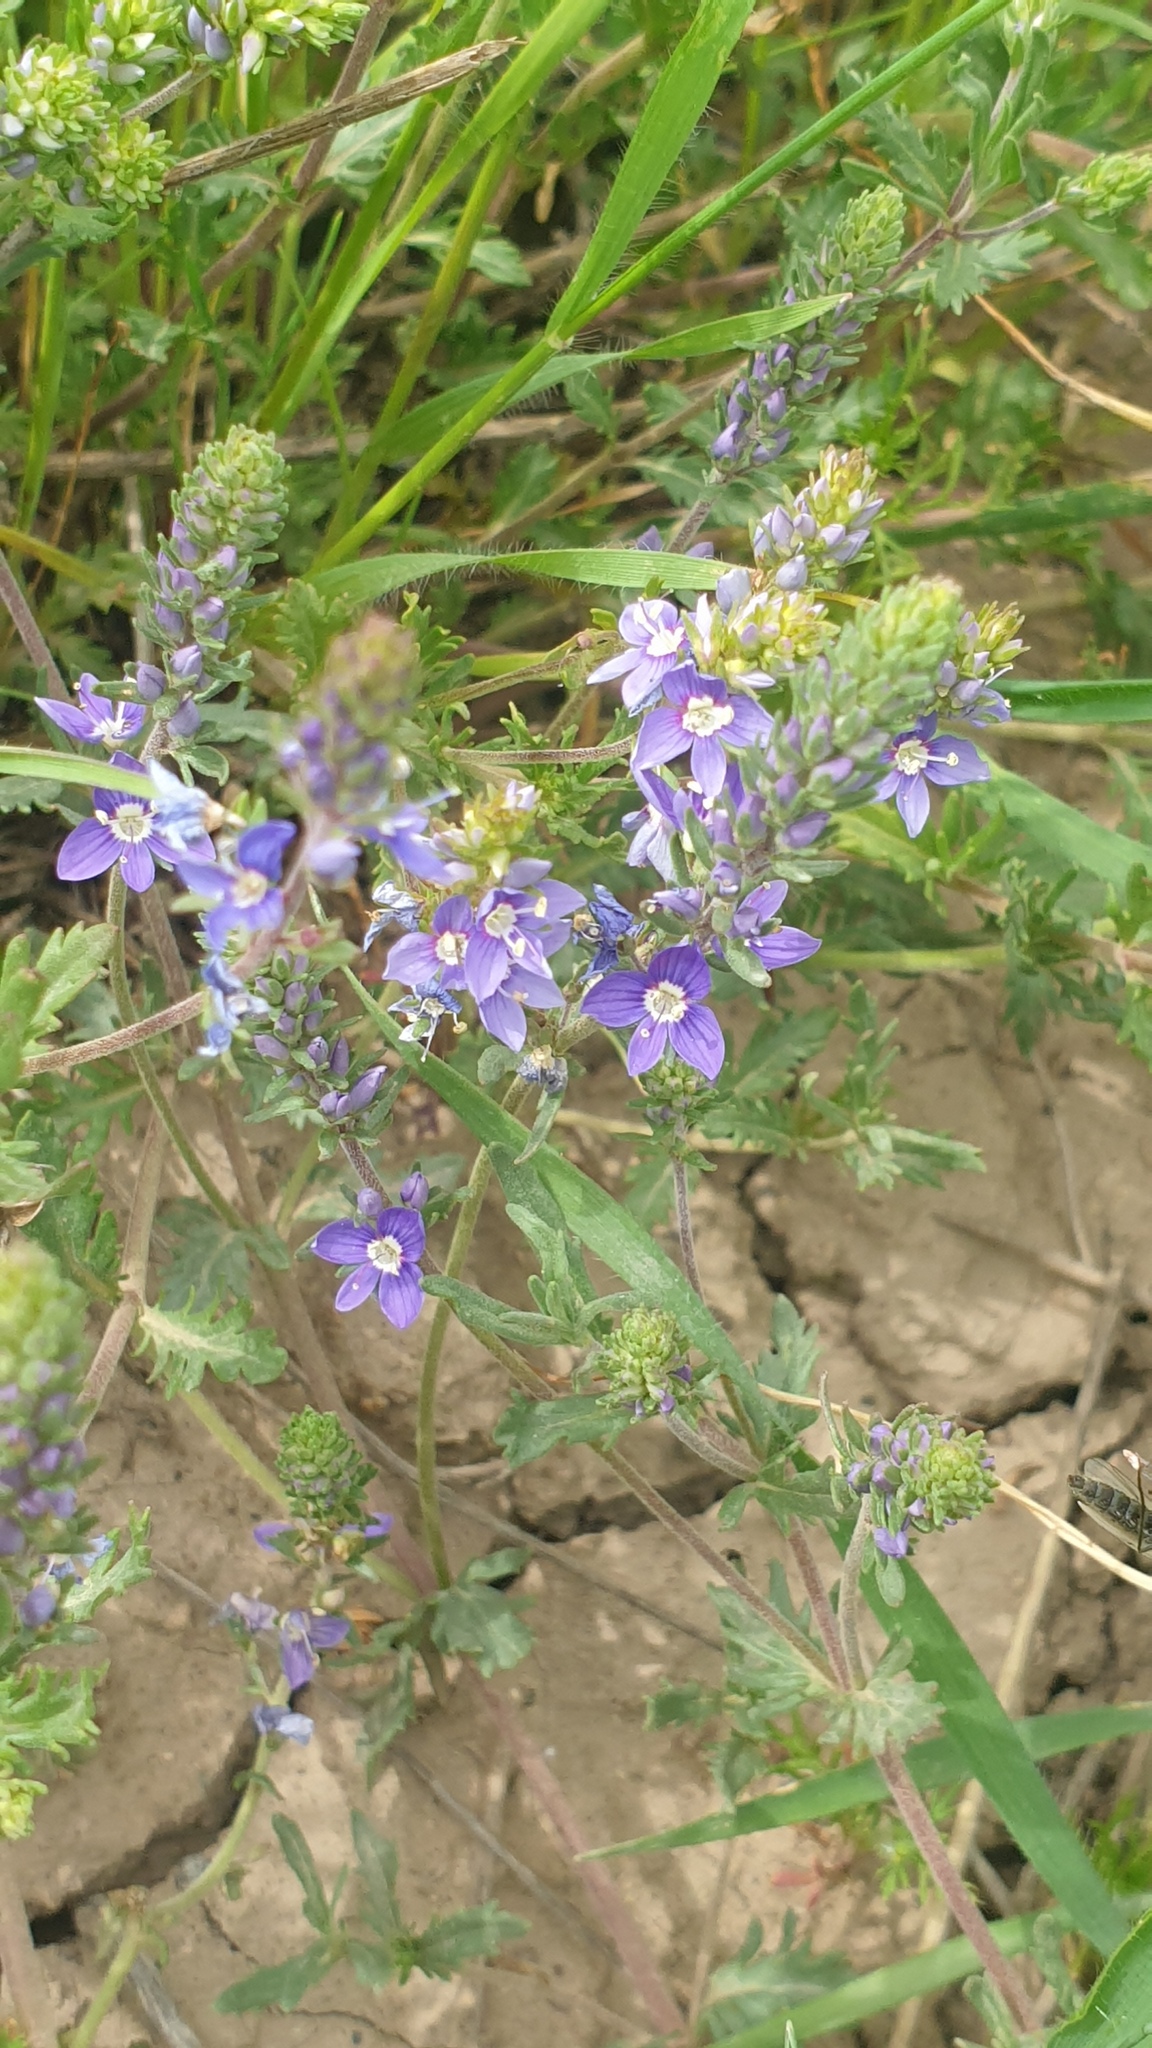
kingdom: Plantae
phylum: Tracheophyta
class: Magnoliopsida
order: Lamiales
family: Plantaginaceae
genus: Veronica
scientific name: Veronica orientalis
